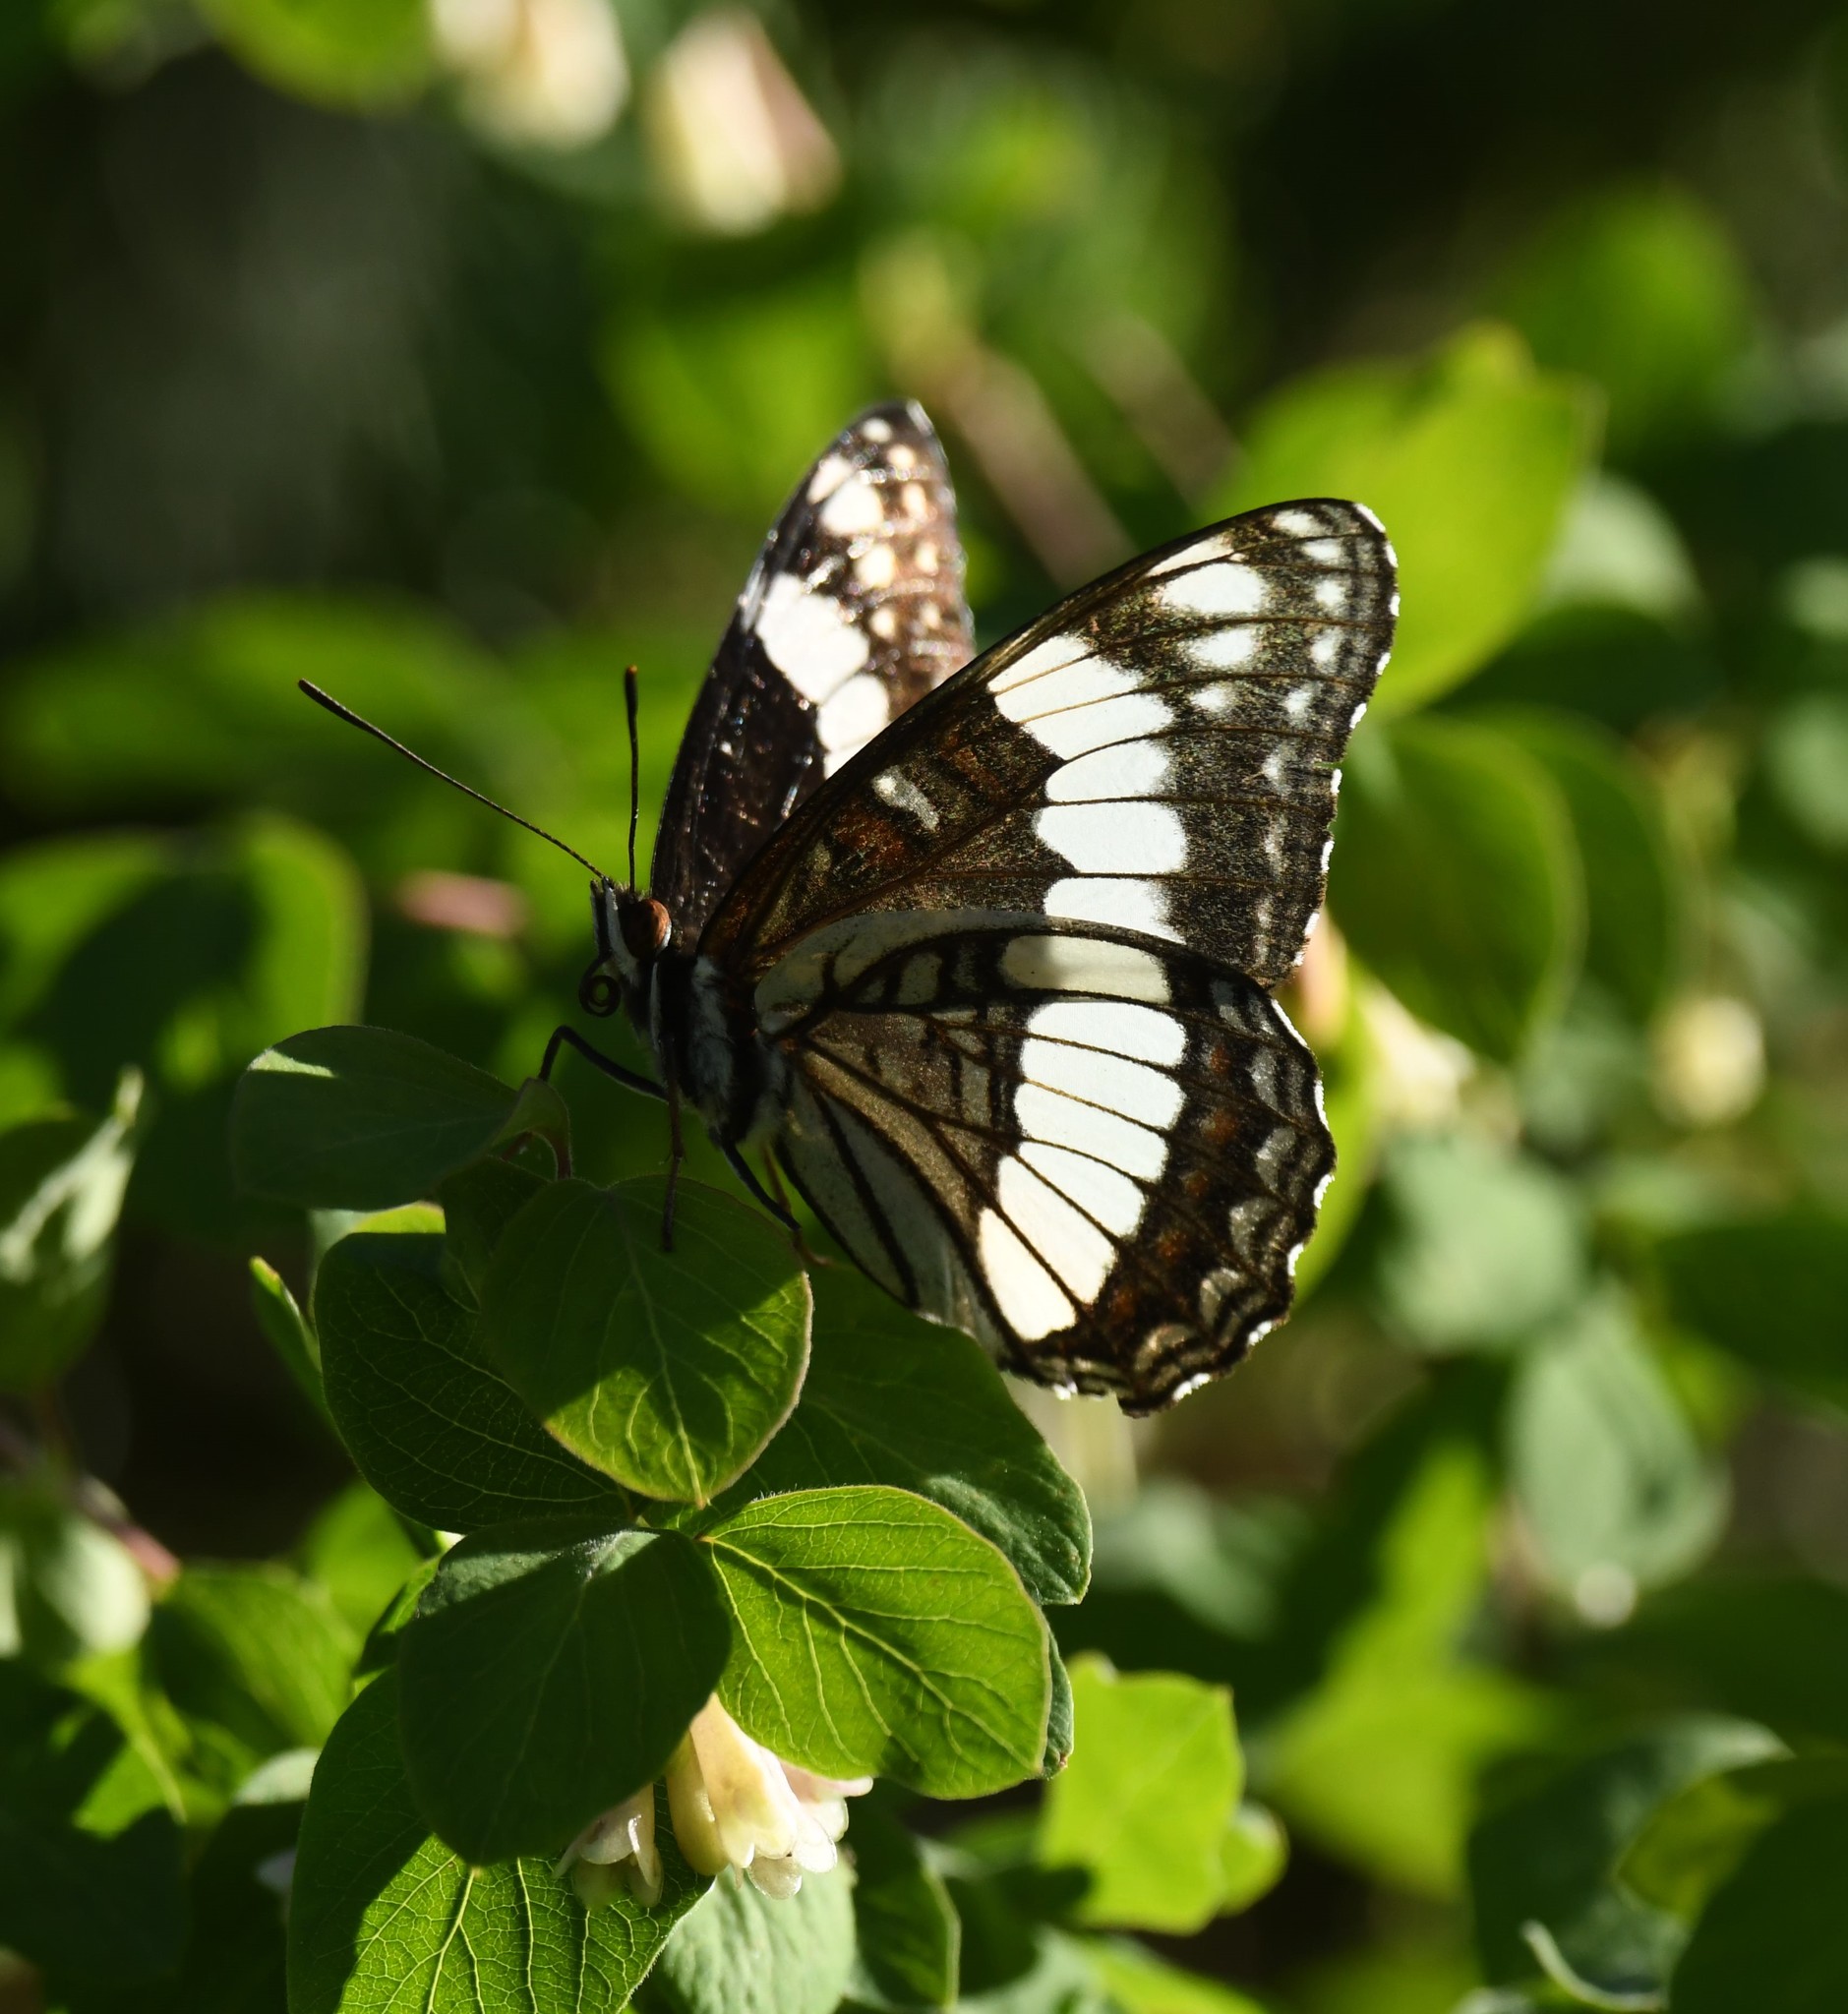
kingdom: Animalia
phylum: Arthropoda
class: Insecta
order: Lepidoptera
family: Nymphalidae
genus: Limenitis
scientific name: Limenitis weidemeyerii
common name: Weidemeyer's admiral
